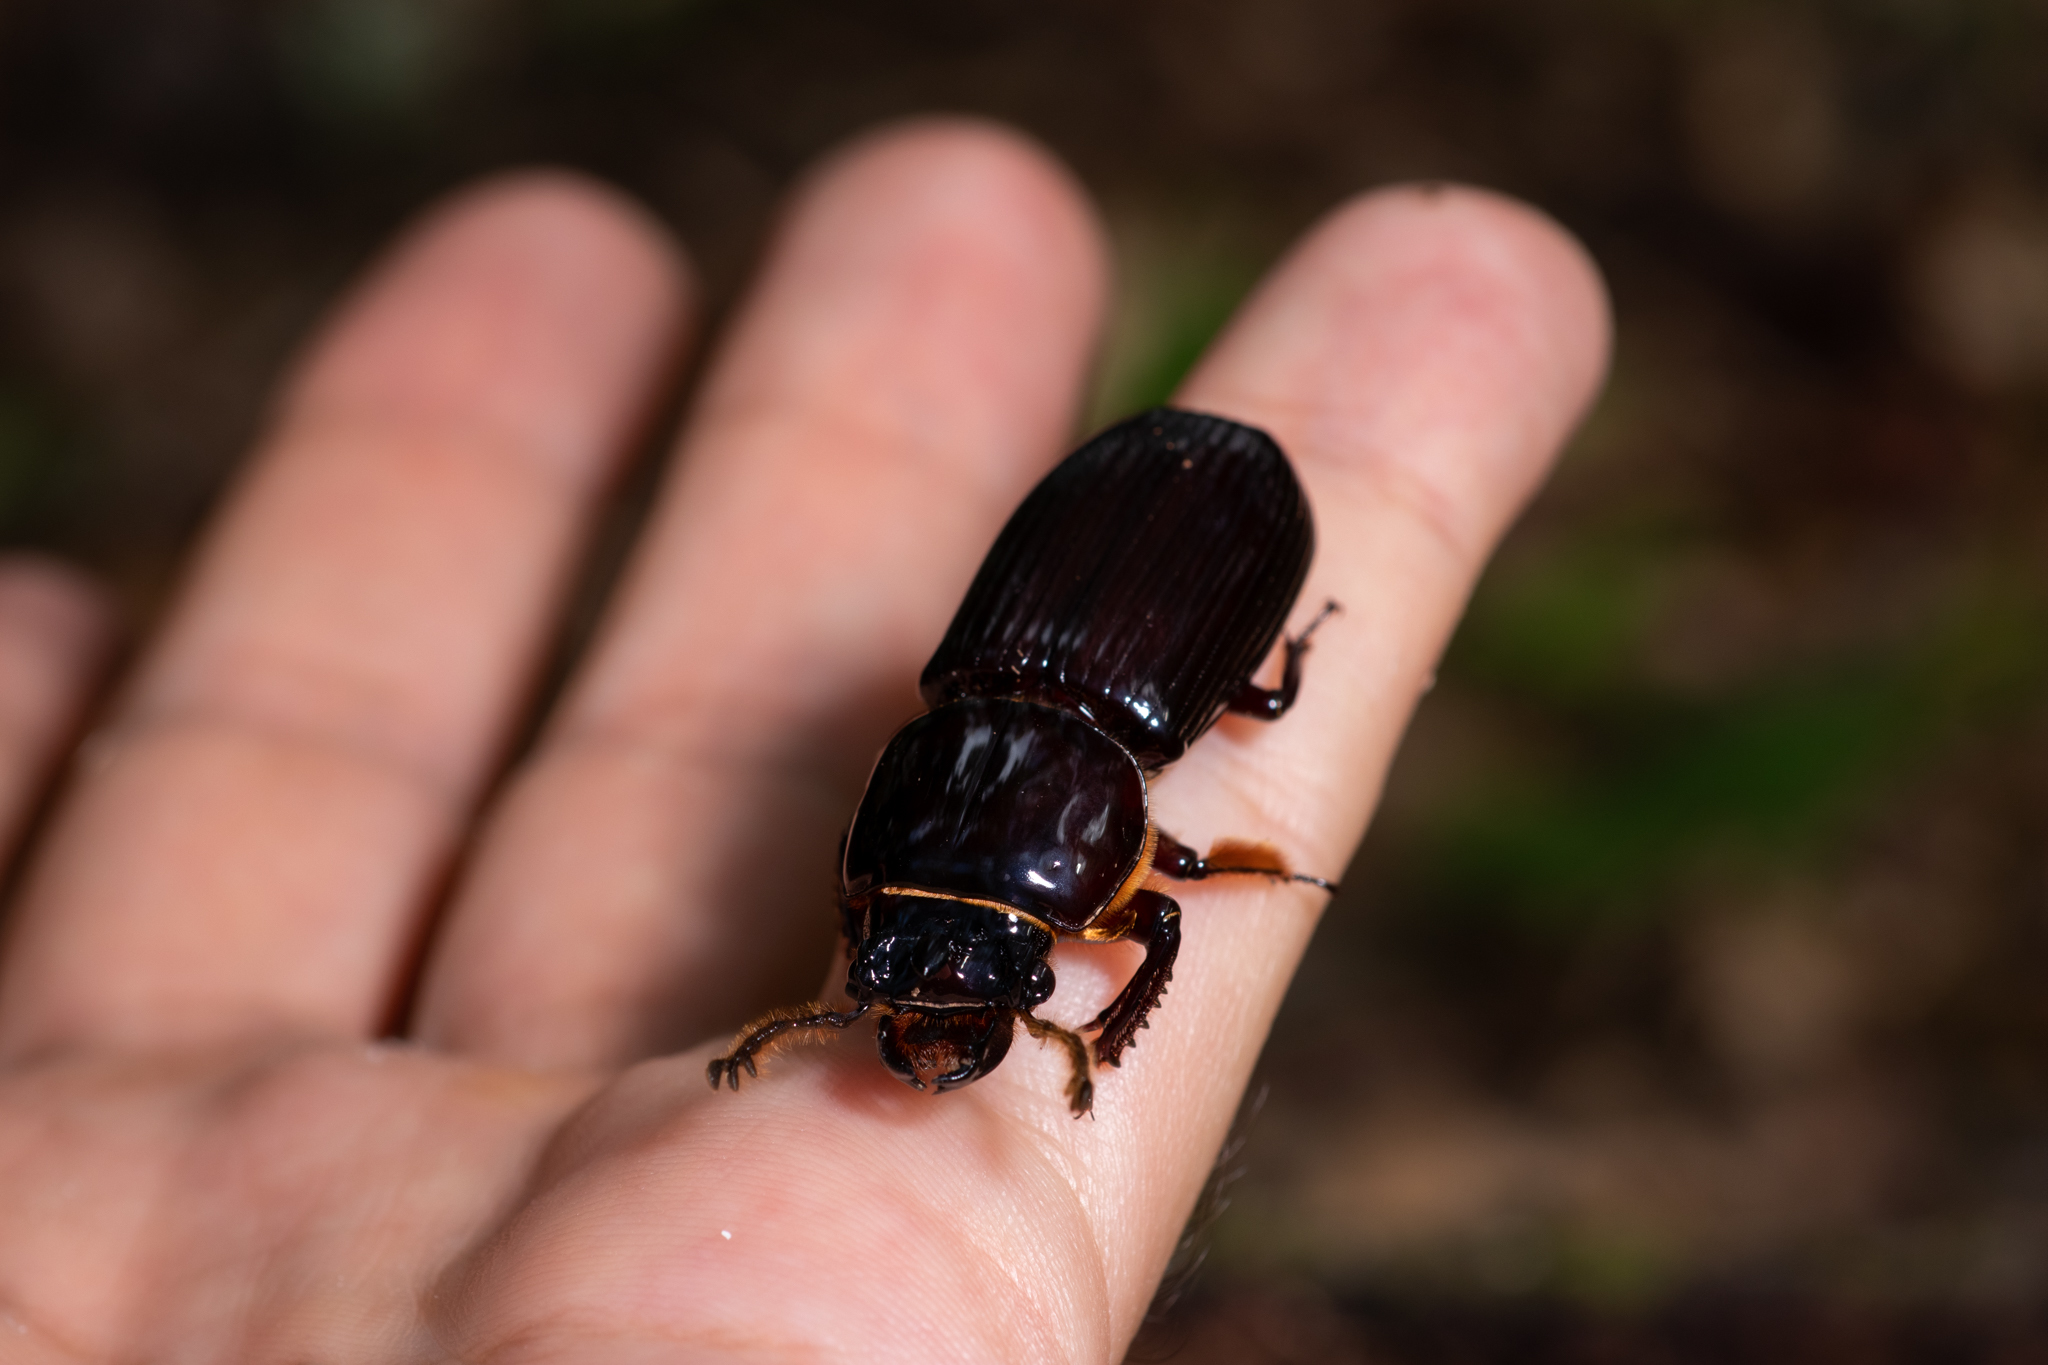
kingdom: Animalia
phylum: Arthropoda
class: Insecta
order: Coleoptera
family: Passalidae
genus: Odontotaenius
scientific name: Odontotaenius disjunctus
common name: Patent leather beetle
